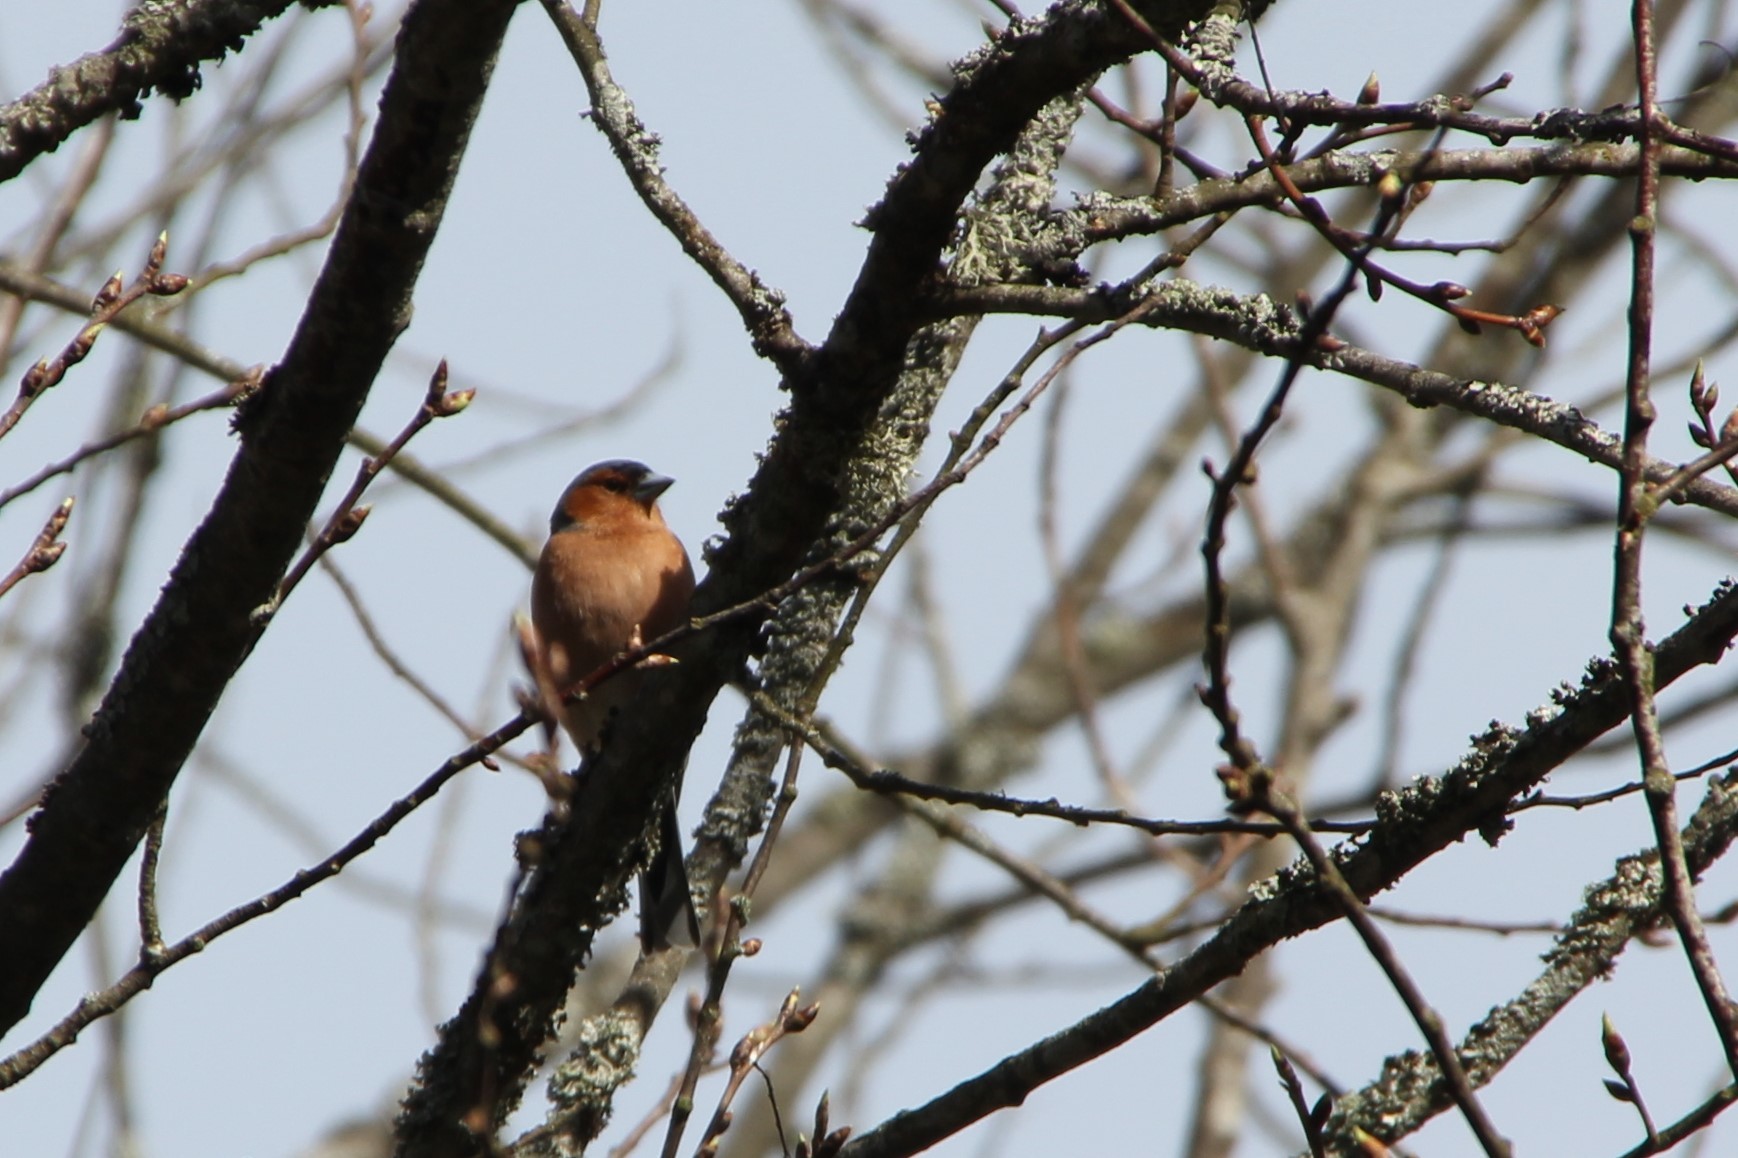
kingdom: Animalia
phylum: Chordata
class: Aves
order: Passeriformes
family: Fringillidae
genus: Fringilla
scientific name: Fringilla coelebs
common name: Common chaffinch
